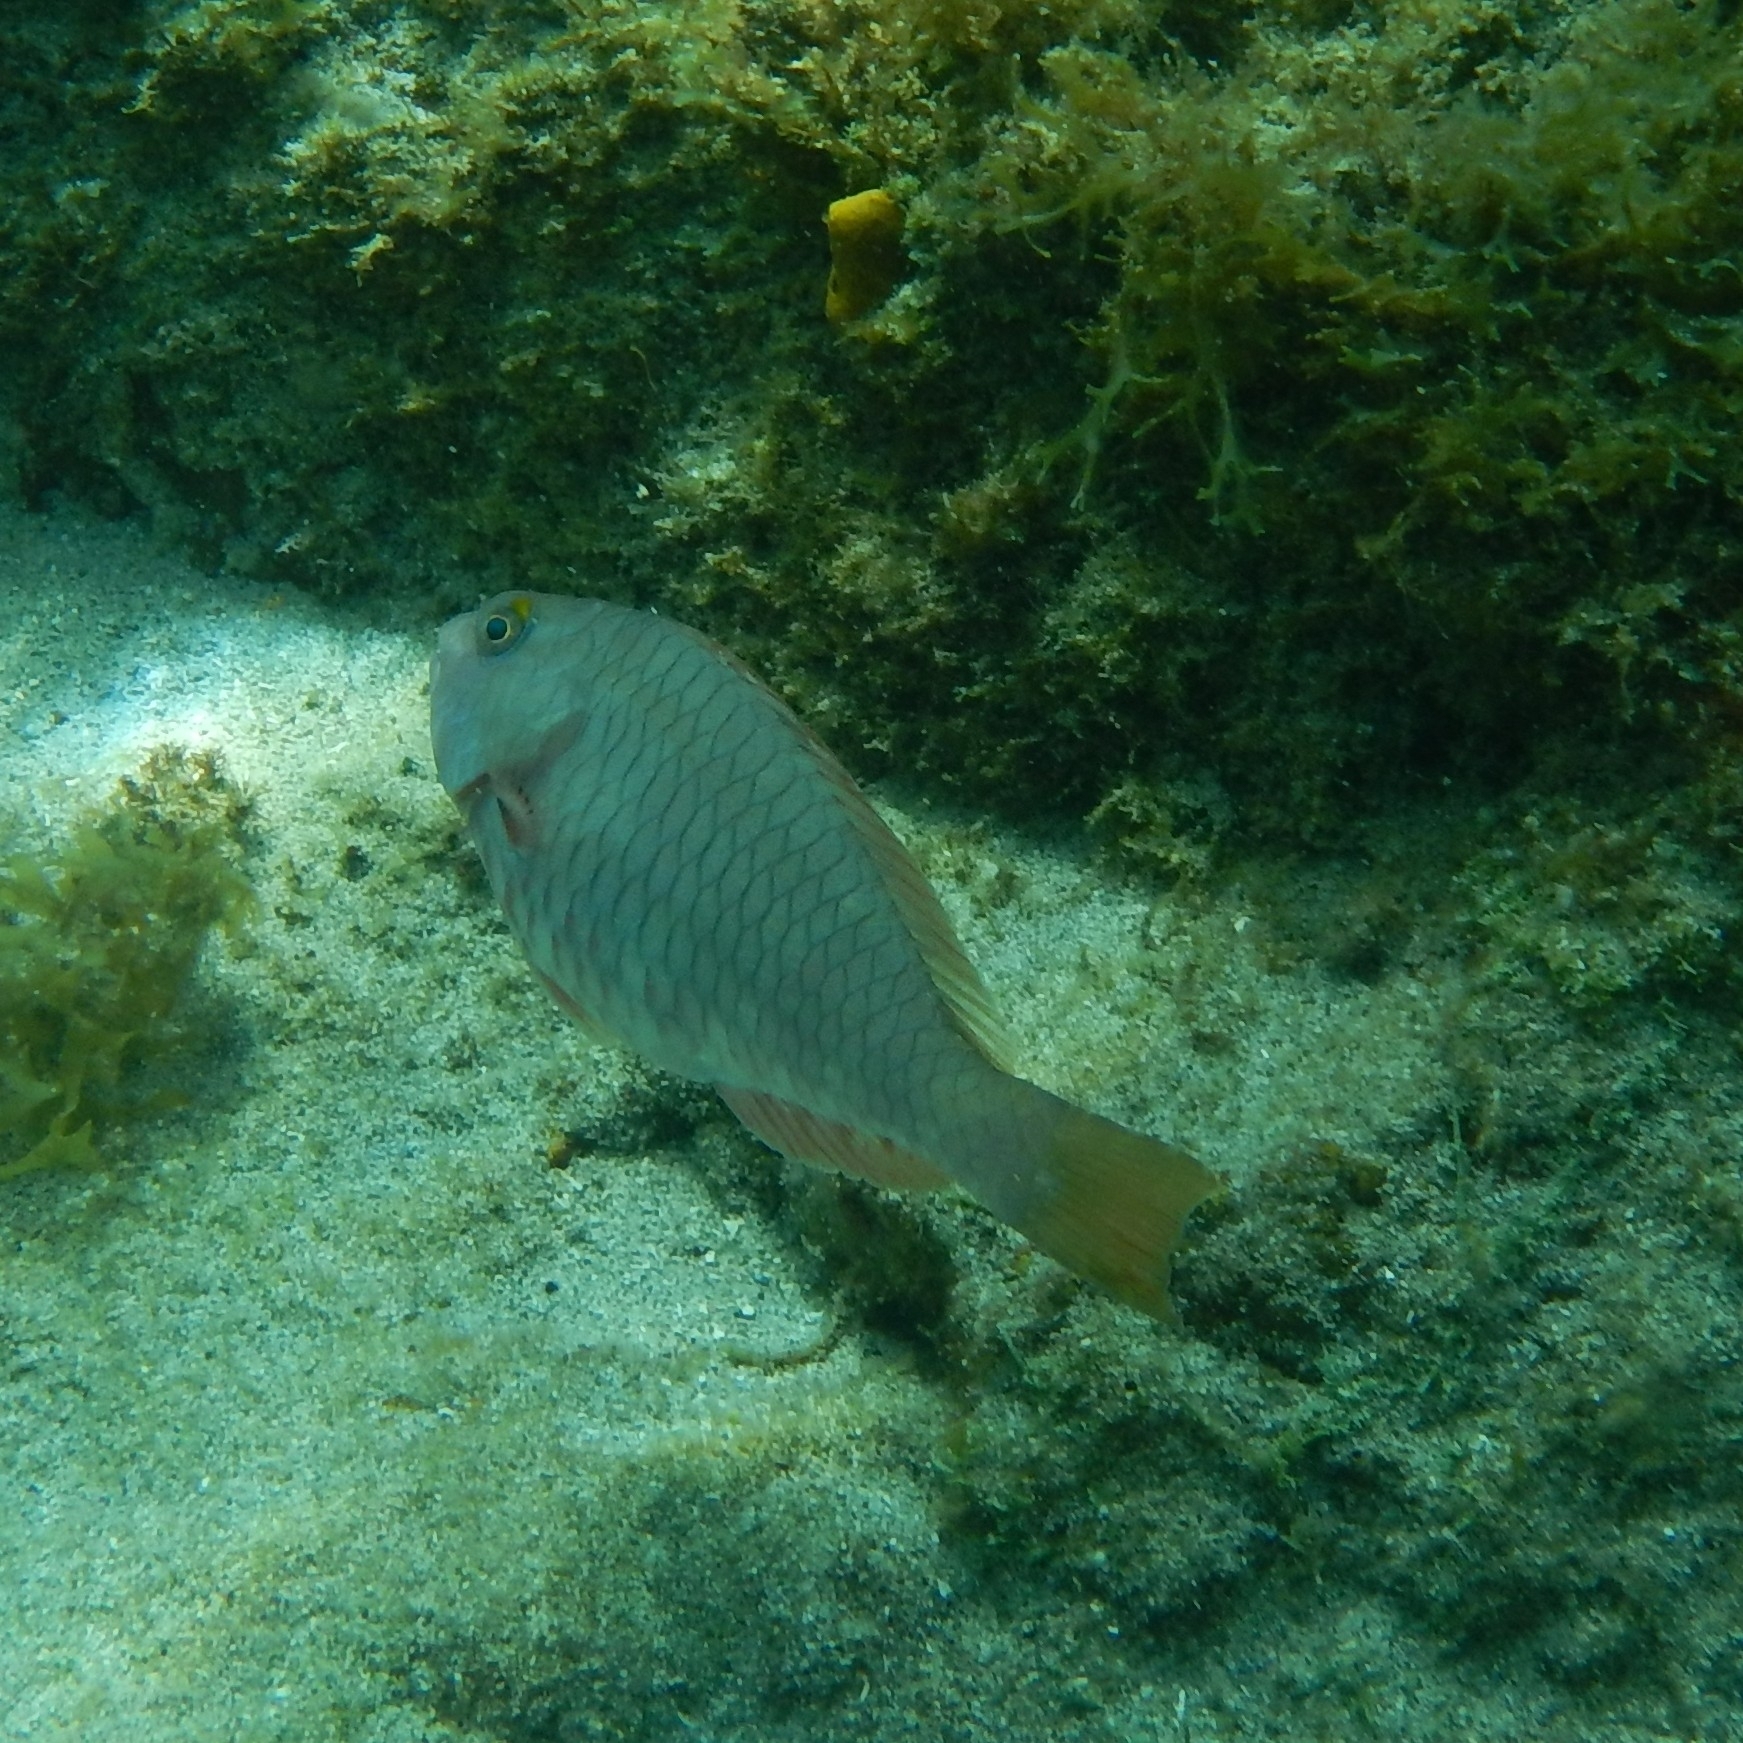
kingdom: Animalia
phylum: Chordata
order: Perciformes
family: Scaridae
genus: Sparisoma
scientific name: Sparisoma rubripinne
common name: Redfin parrotfish
